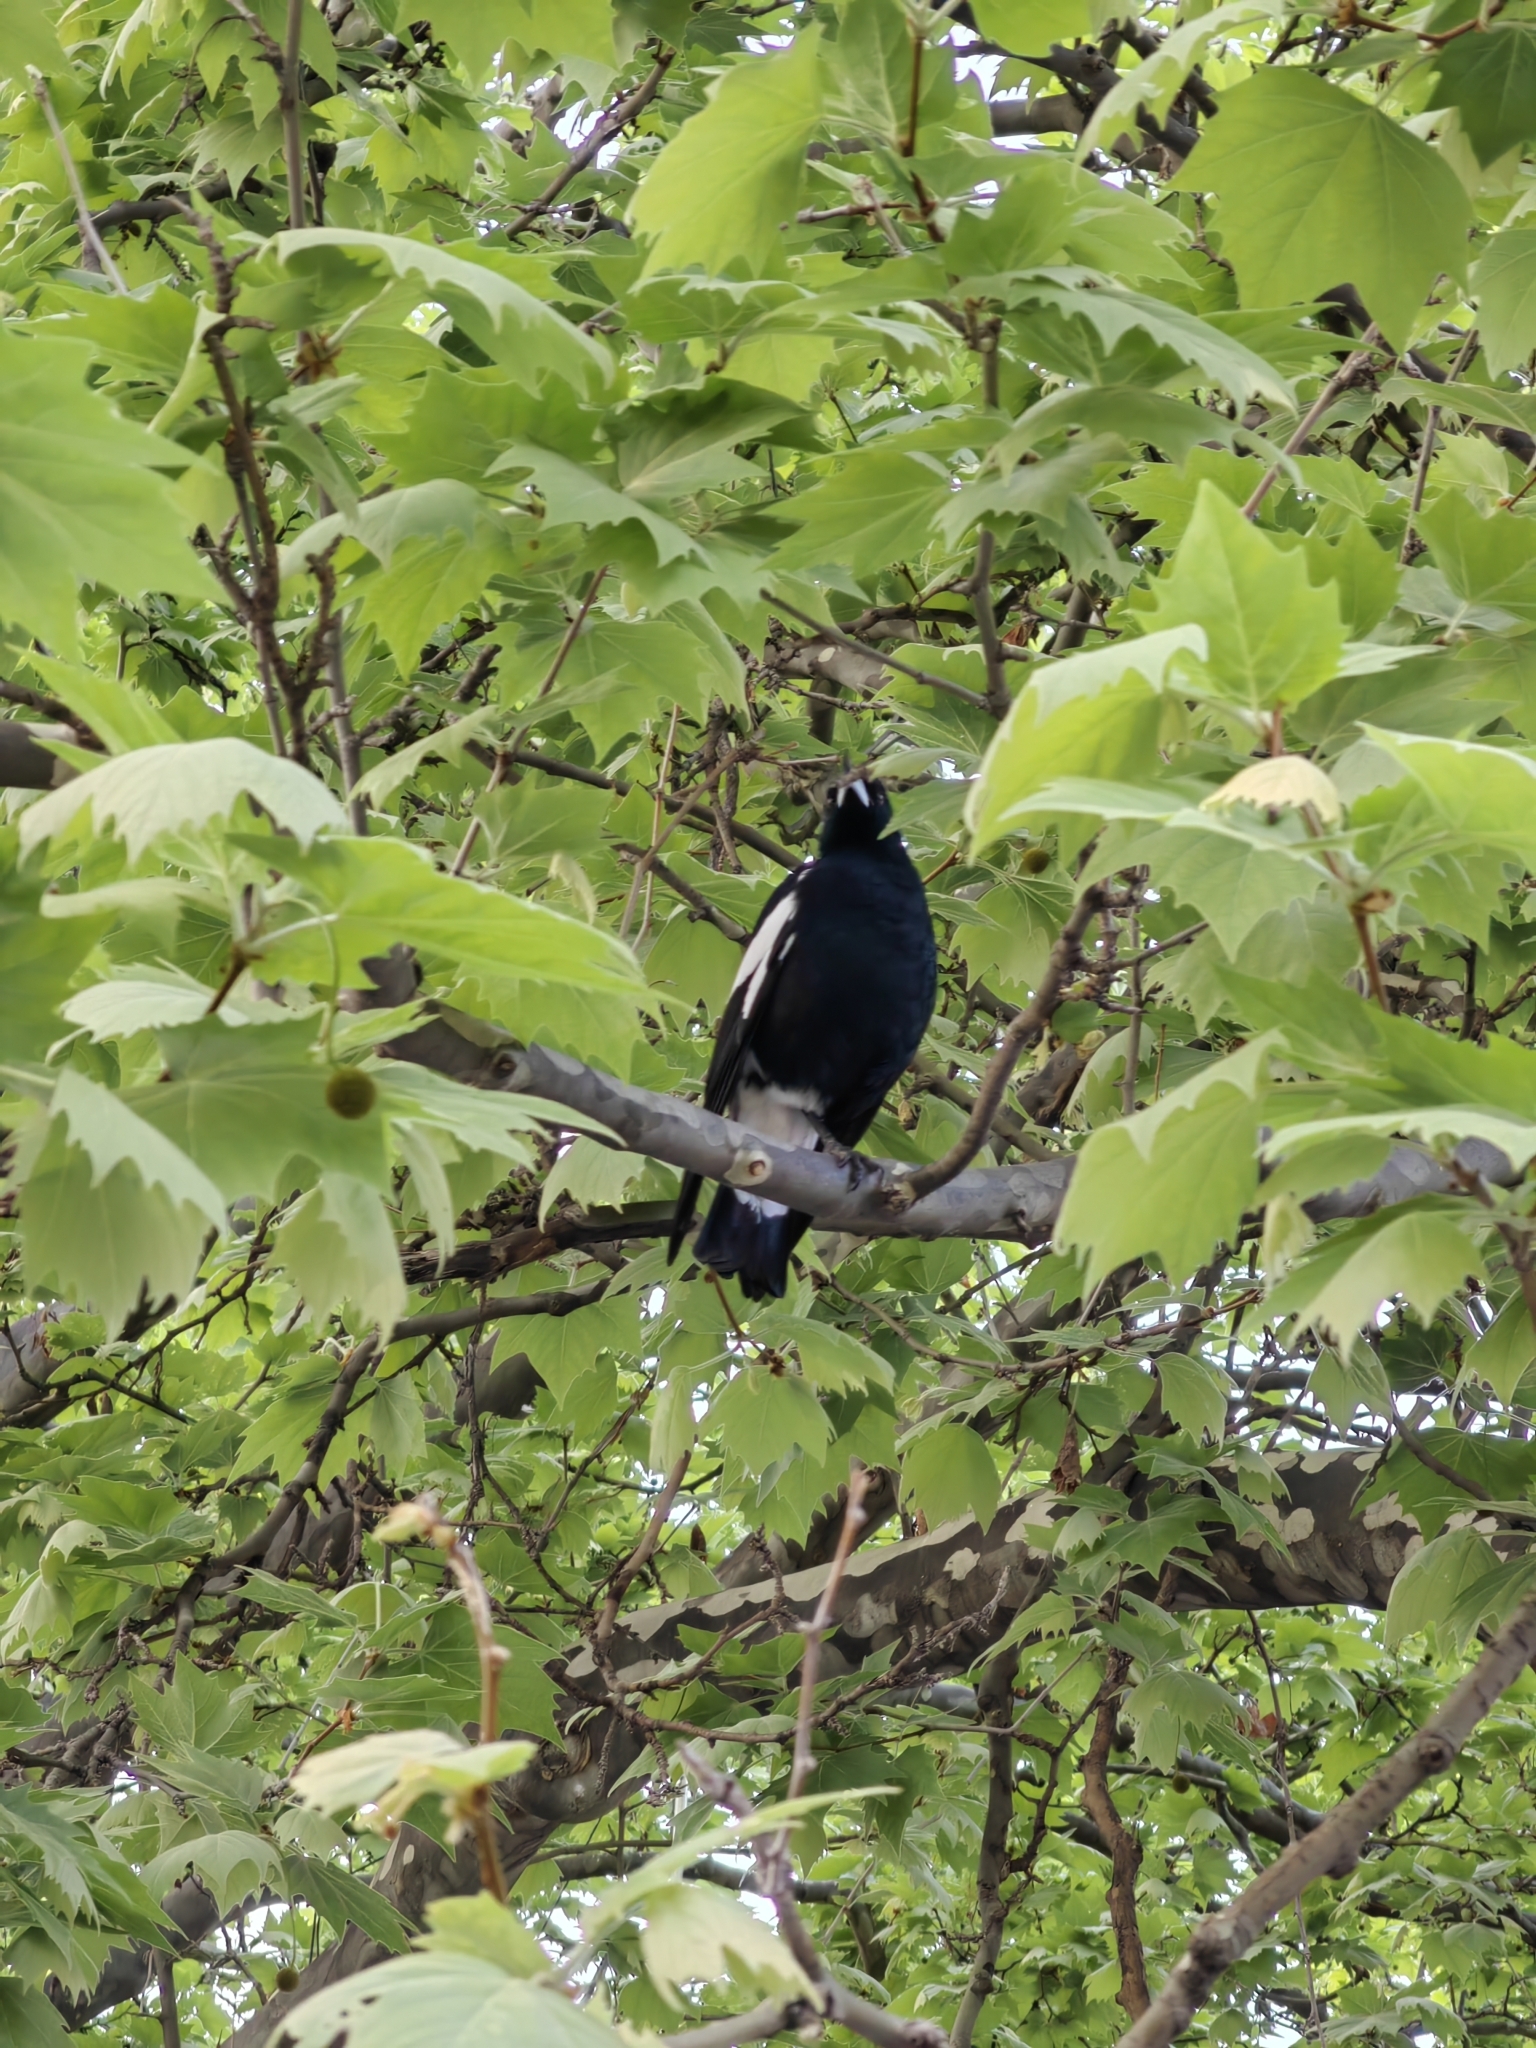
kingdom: Animalia
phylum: Chordata
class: Aves
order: Passeriformes
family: Cracticidae
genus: Gymnorhina
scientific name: Gymnorhina tibicen
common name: Australian magpie
